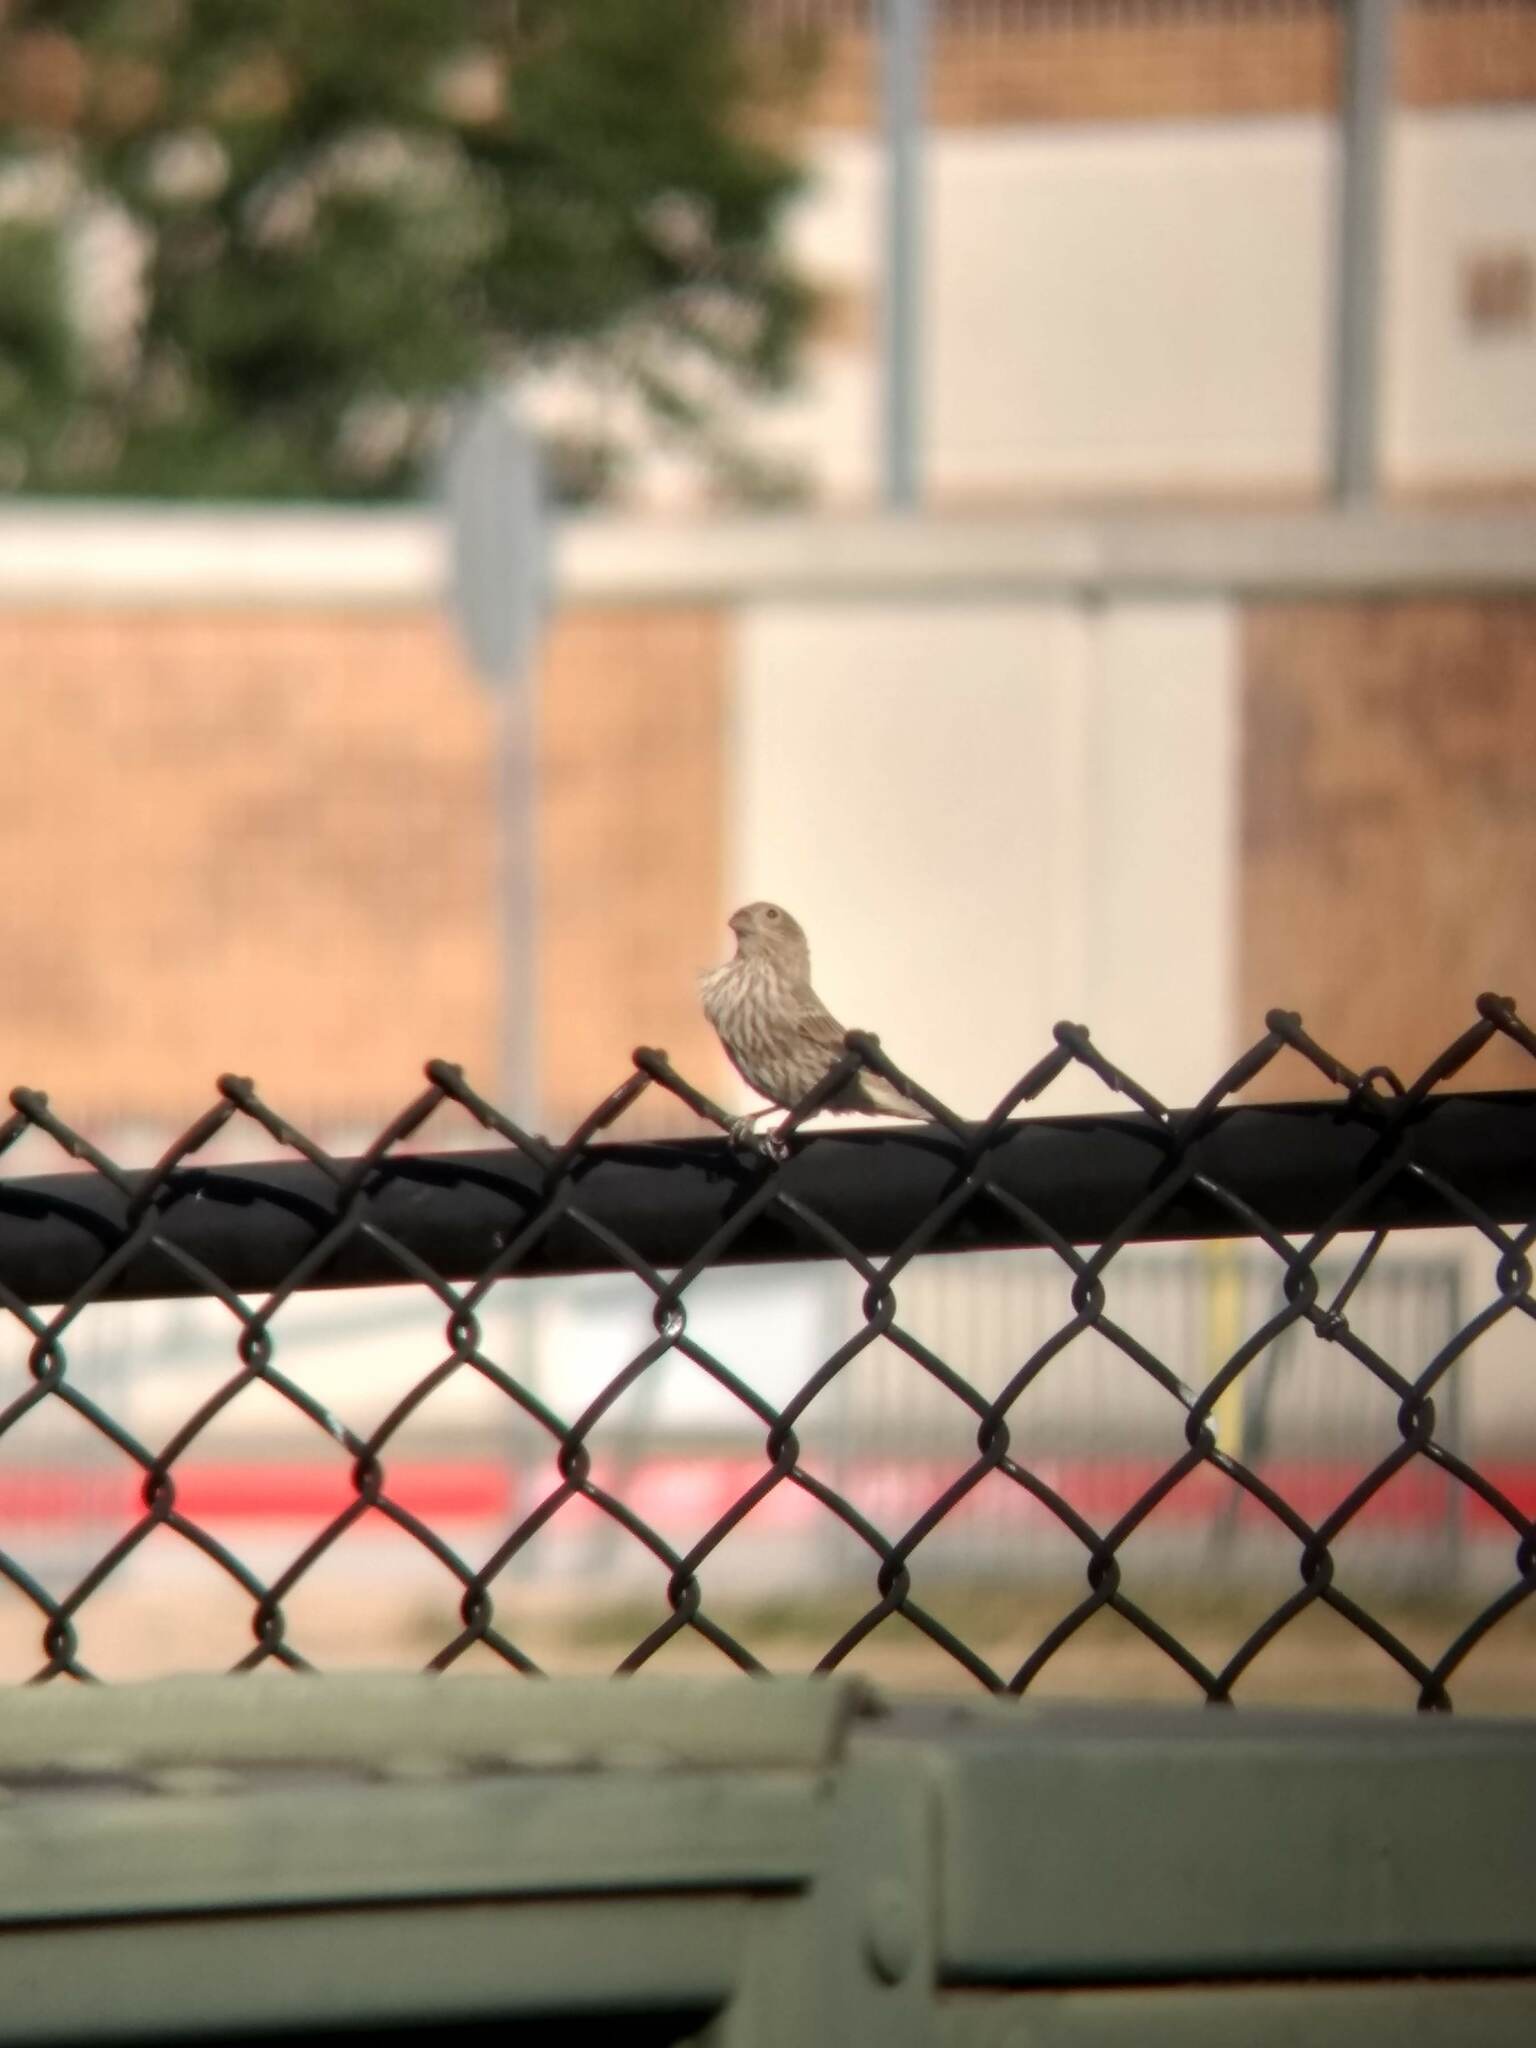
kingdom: Animalia
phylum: Chordata
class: Aves
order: Passeriformes
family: Fringillidae
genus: Haemorhous
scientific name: Haemorhous mexicanus
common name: House finch
